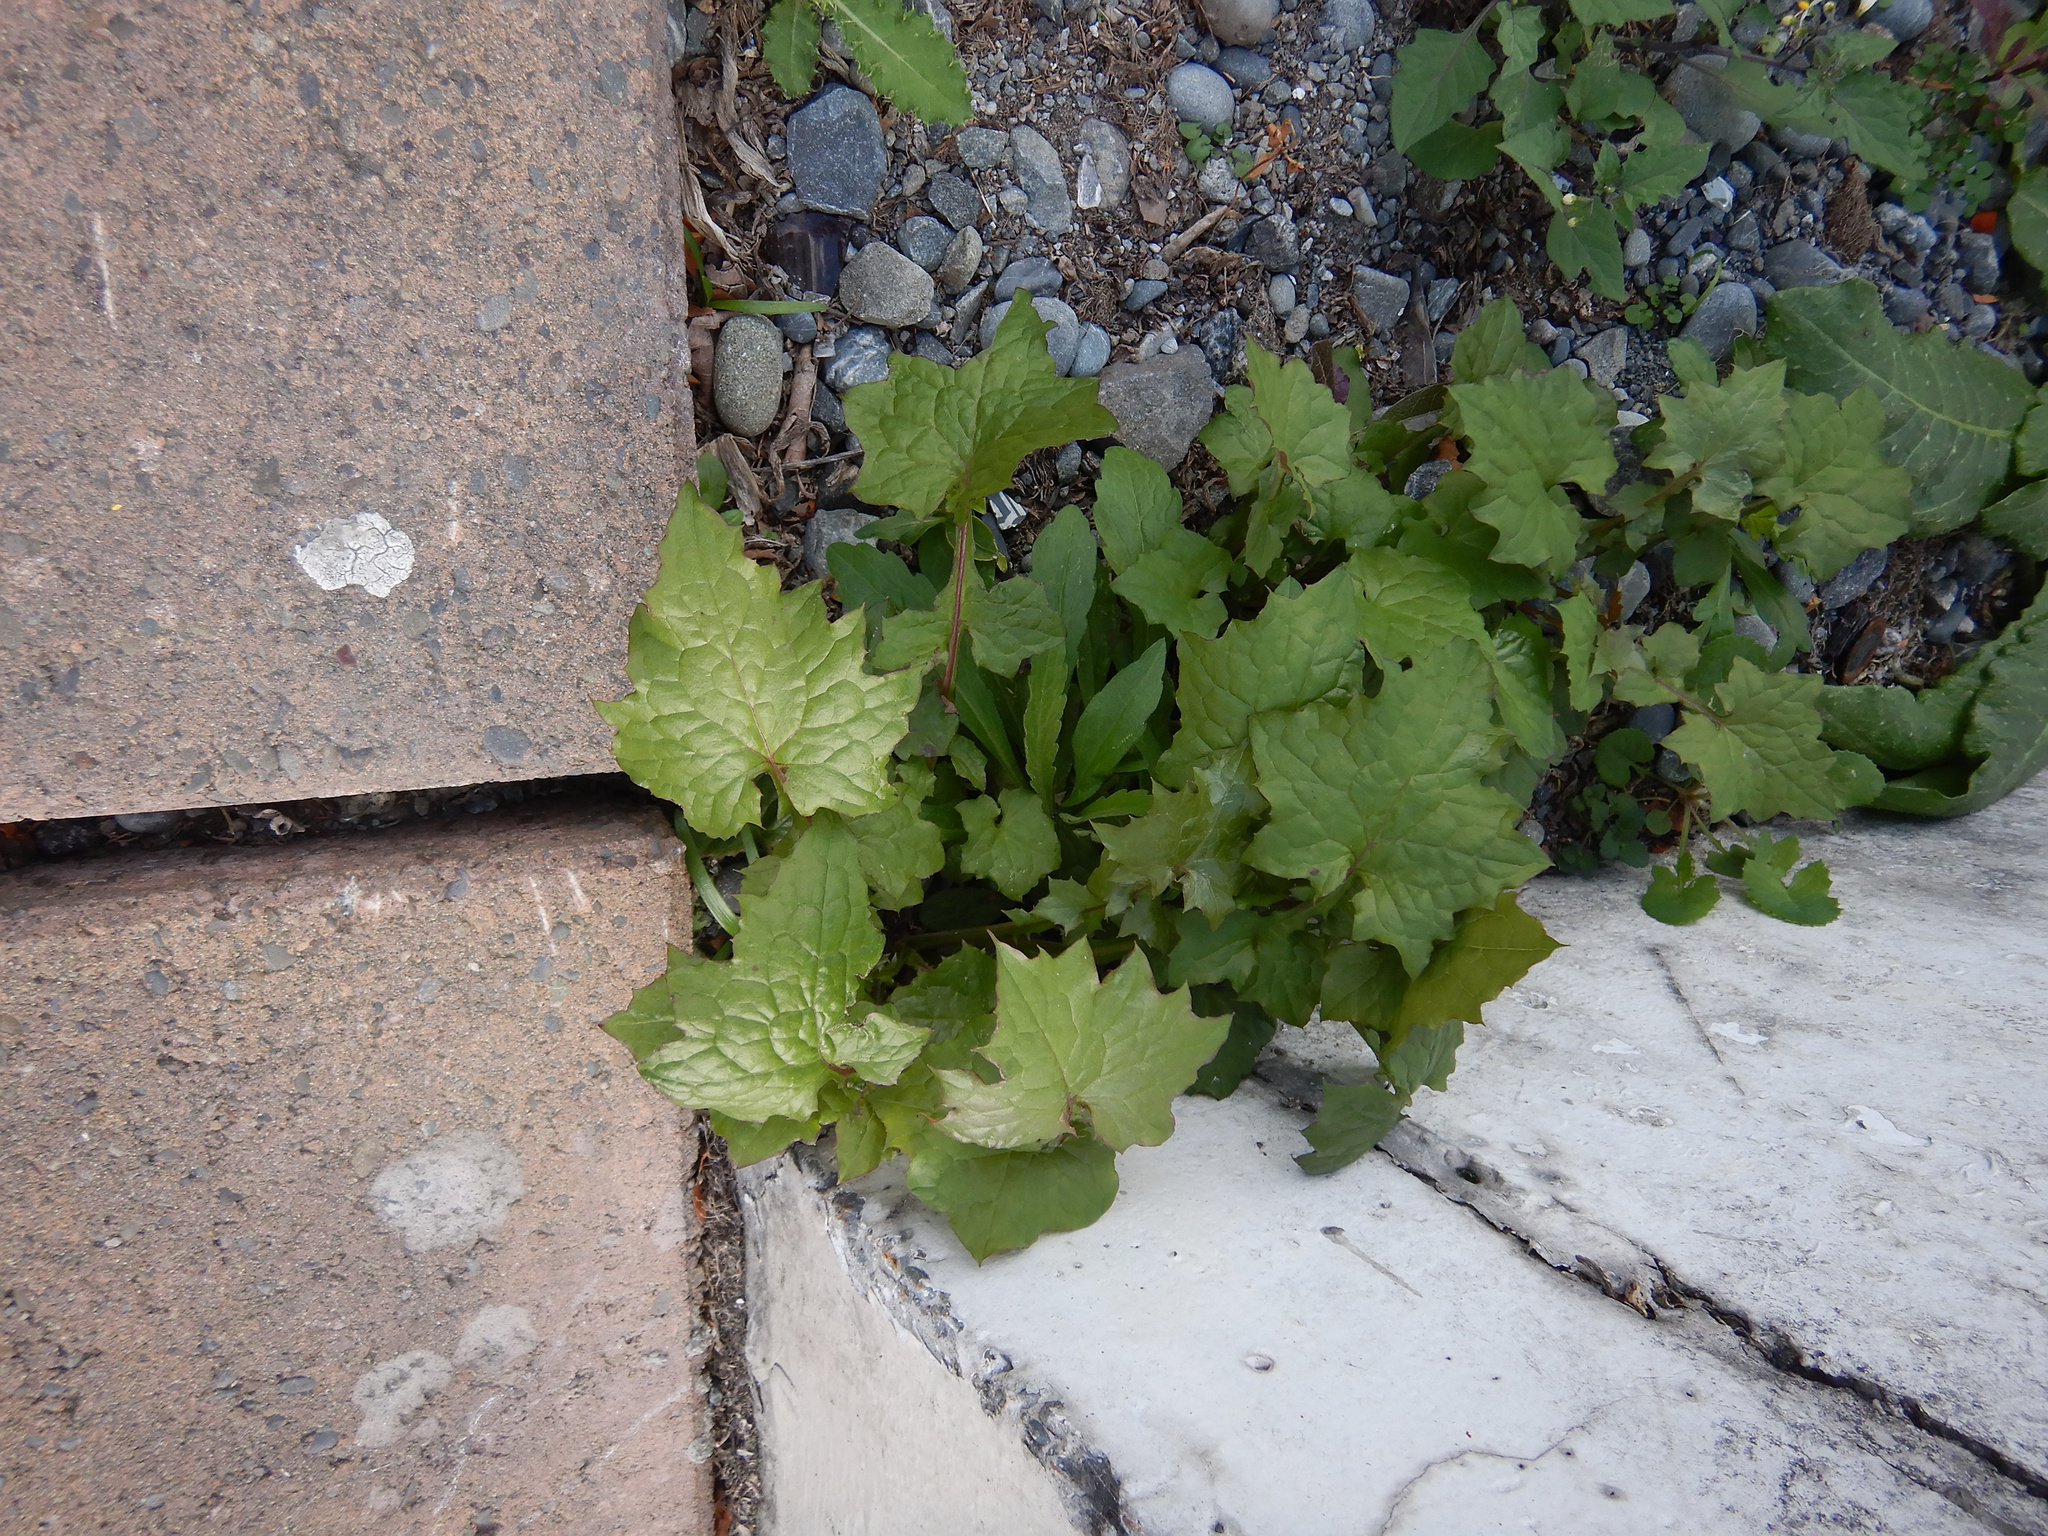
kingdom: Plantae
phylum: Tracheophyta
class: Magnoliopsida
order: Asterales
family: Asteraceae
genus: Mycelis
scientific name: Mycelis muralis
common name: Wall lettuce
